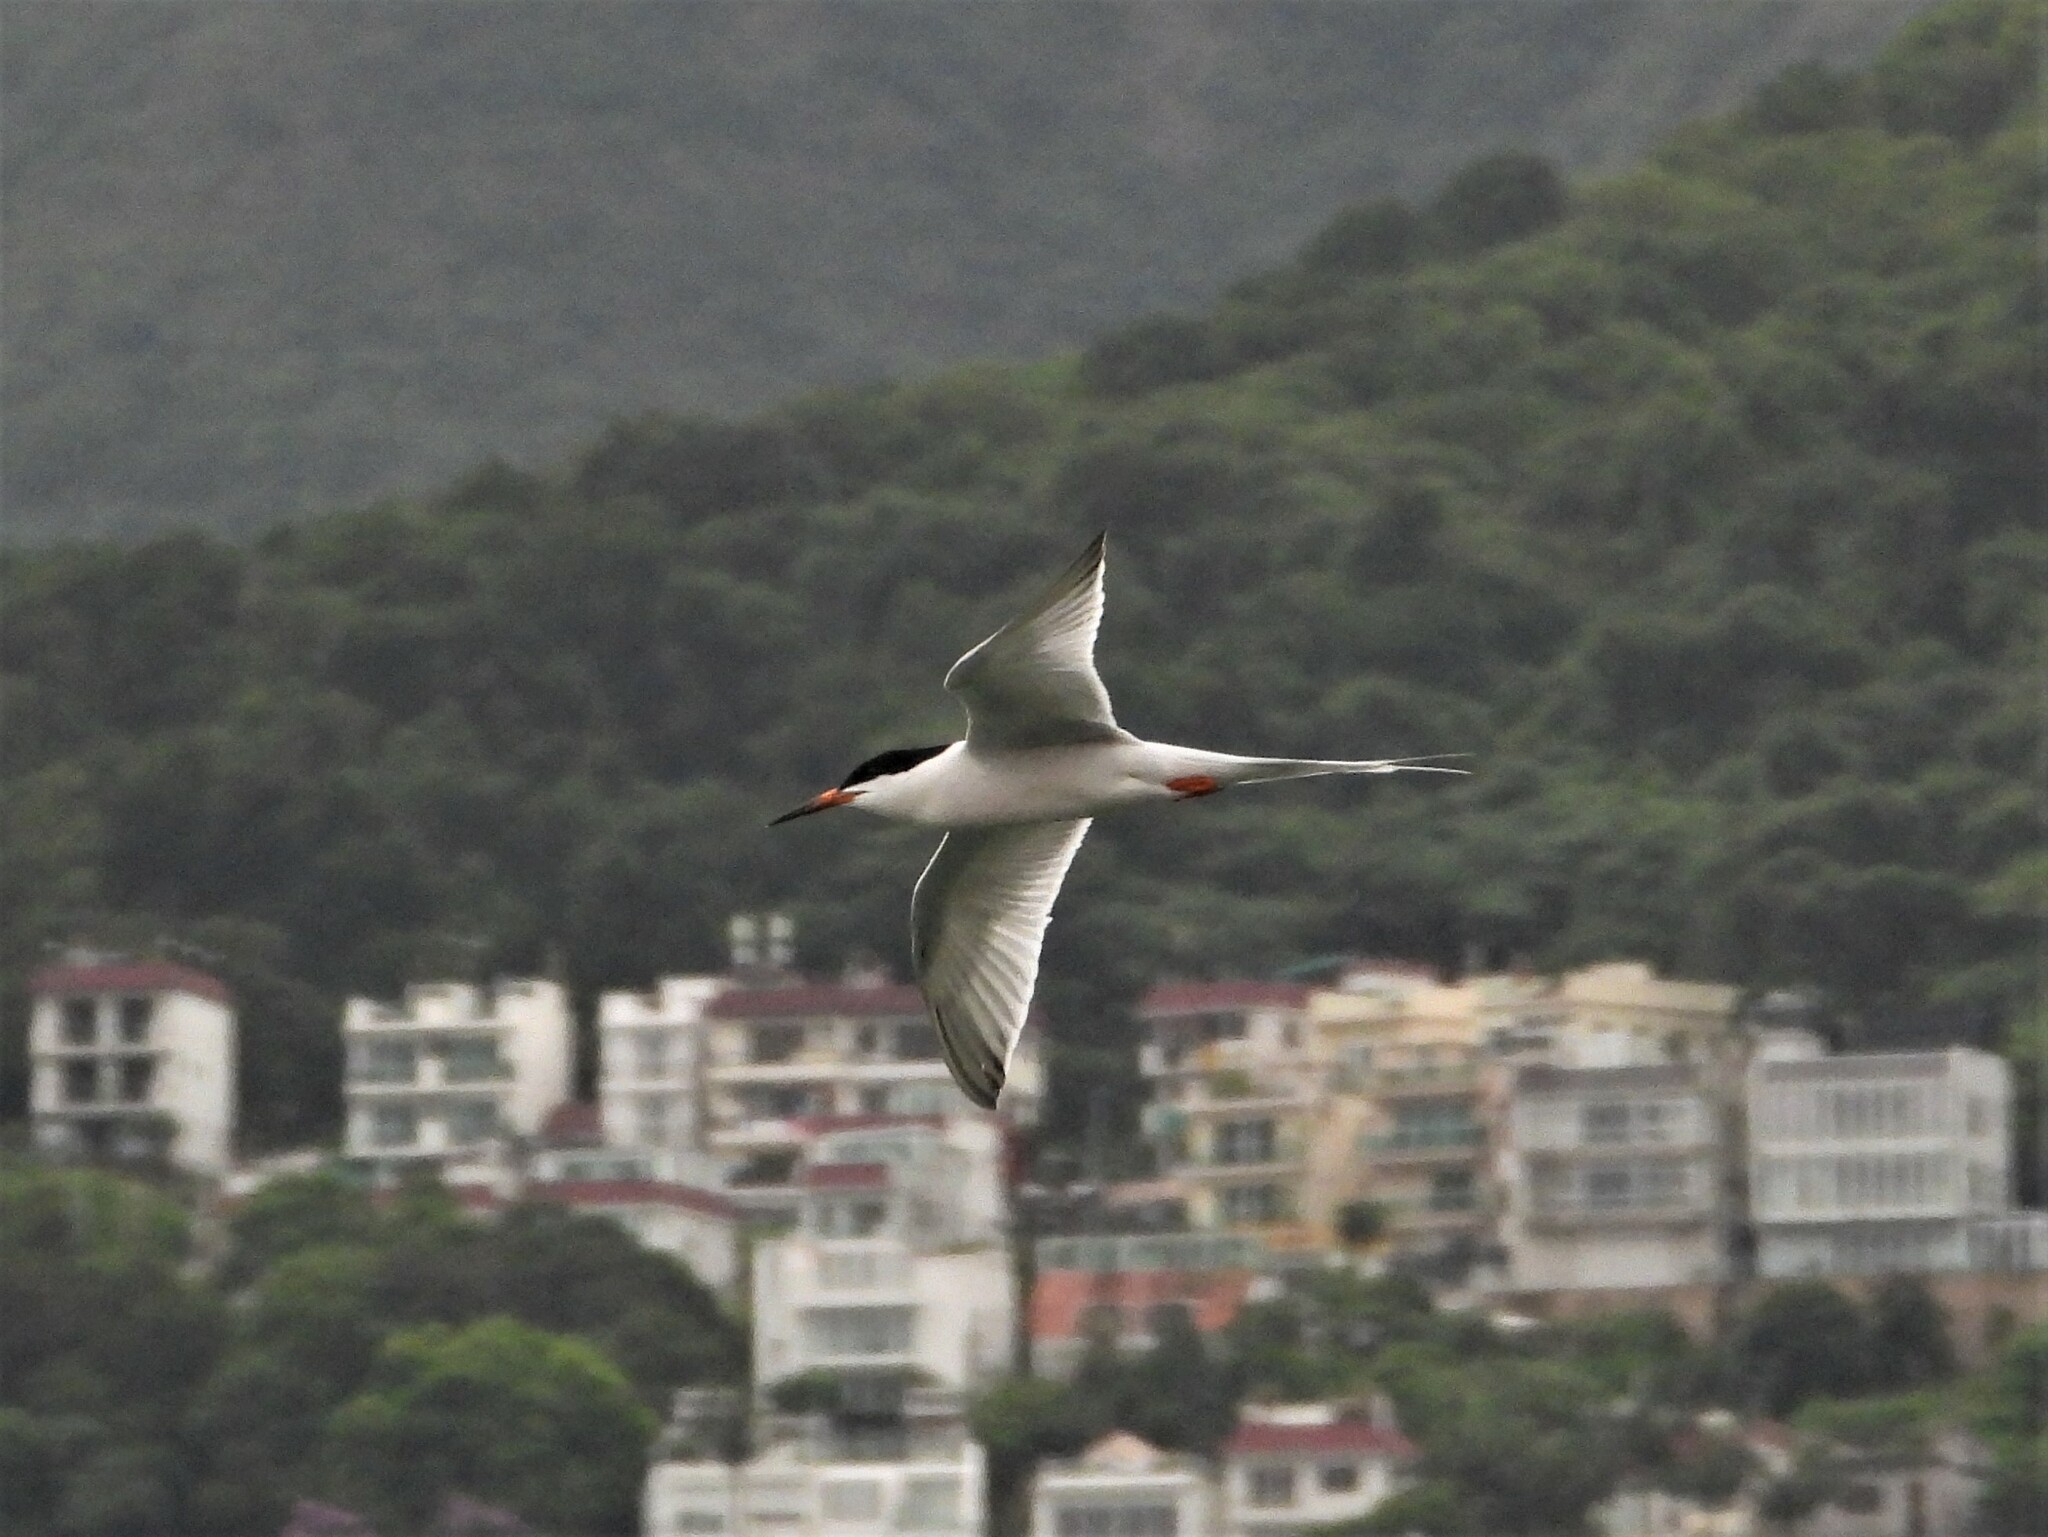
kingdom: Animalia
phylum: Chordata
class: Aves
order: Charadriiformes
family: Laridae
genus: Sterna
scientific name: Sterna dougallii
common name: Roseate tern
